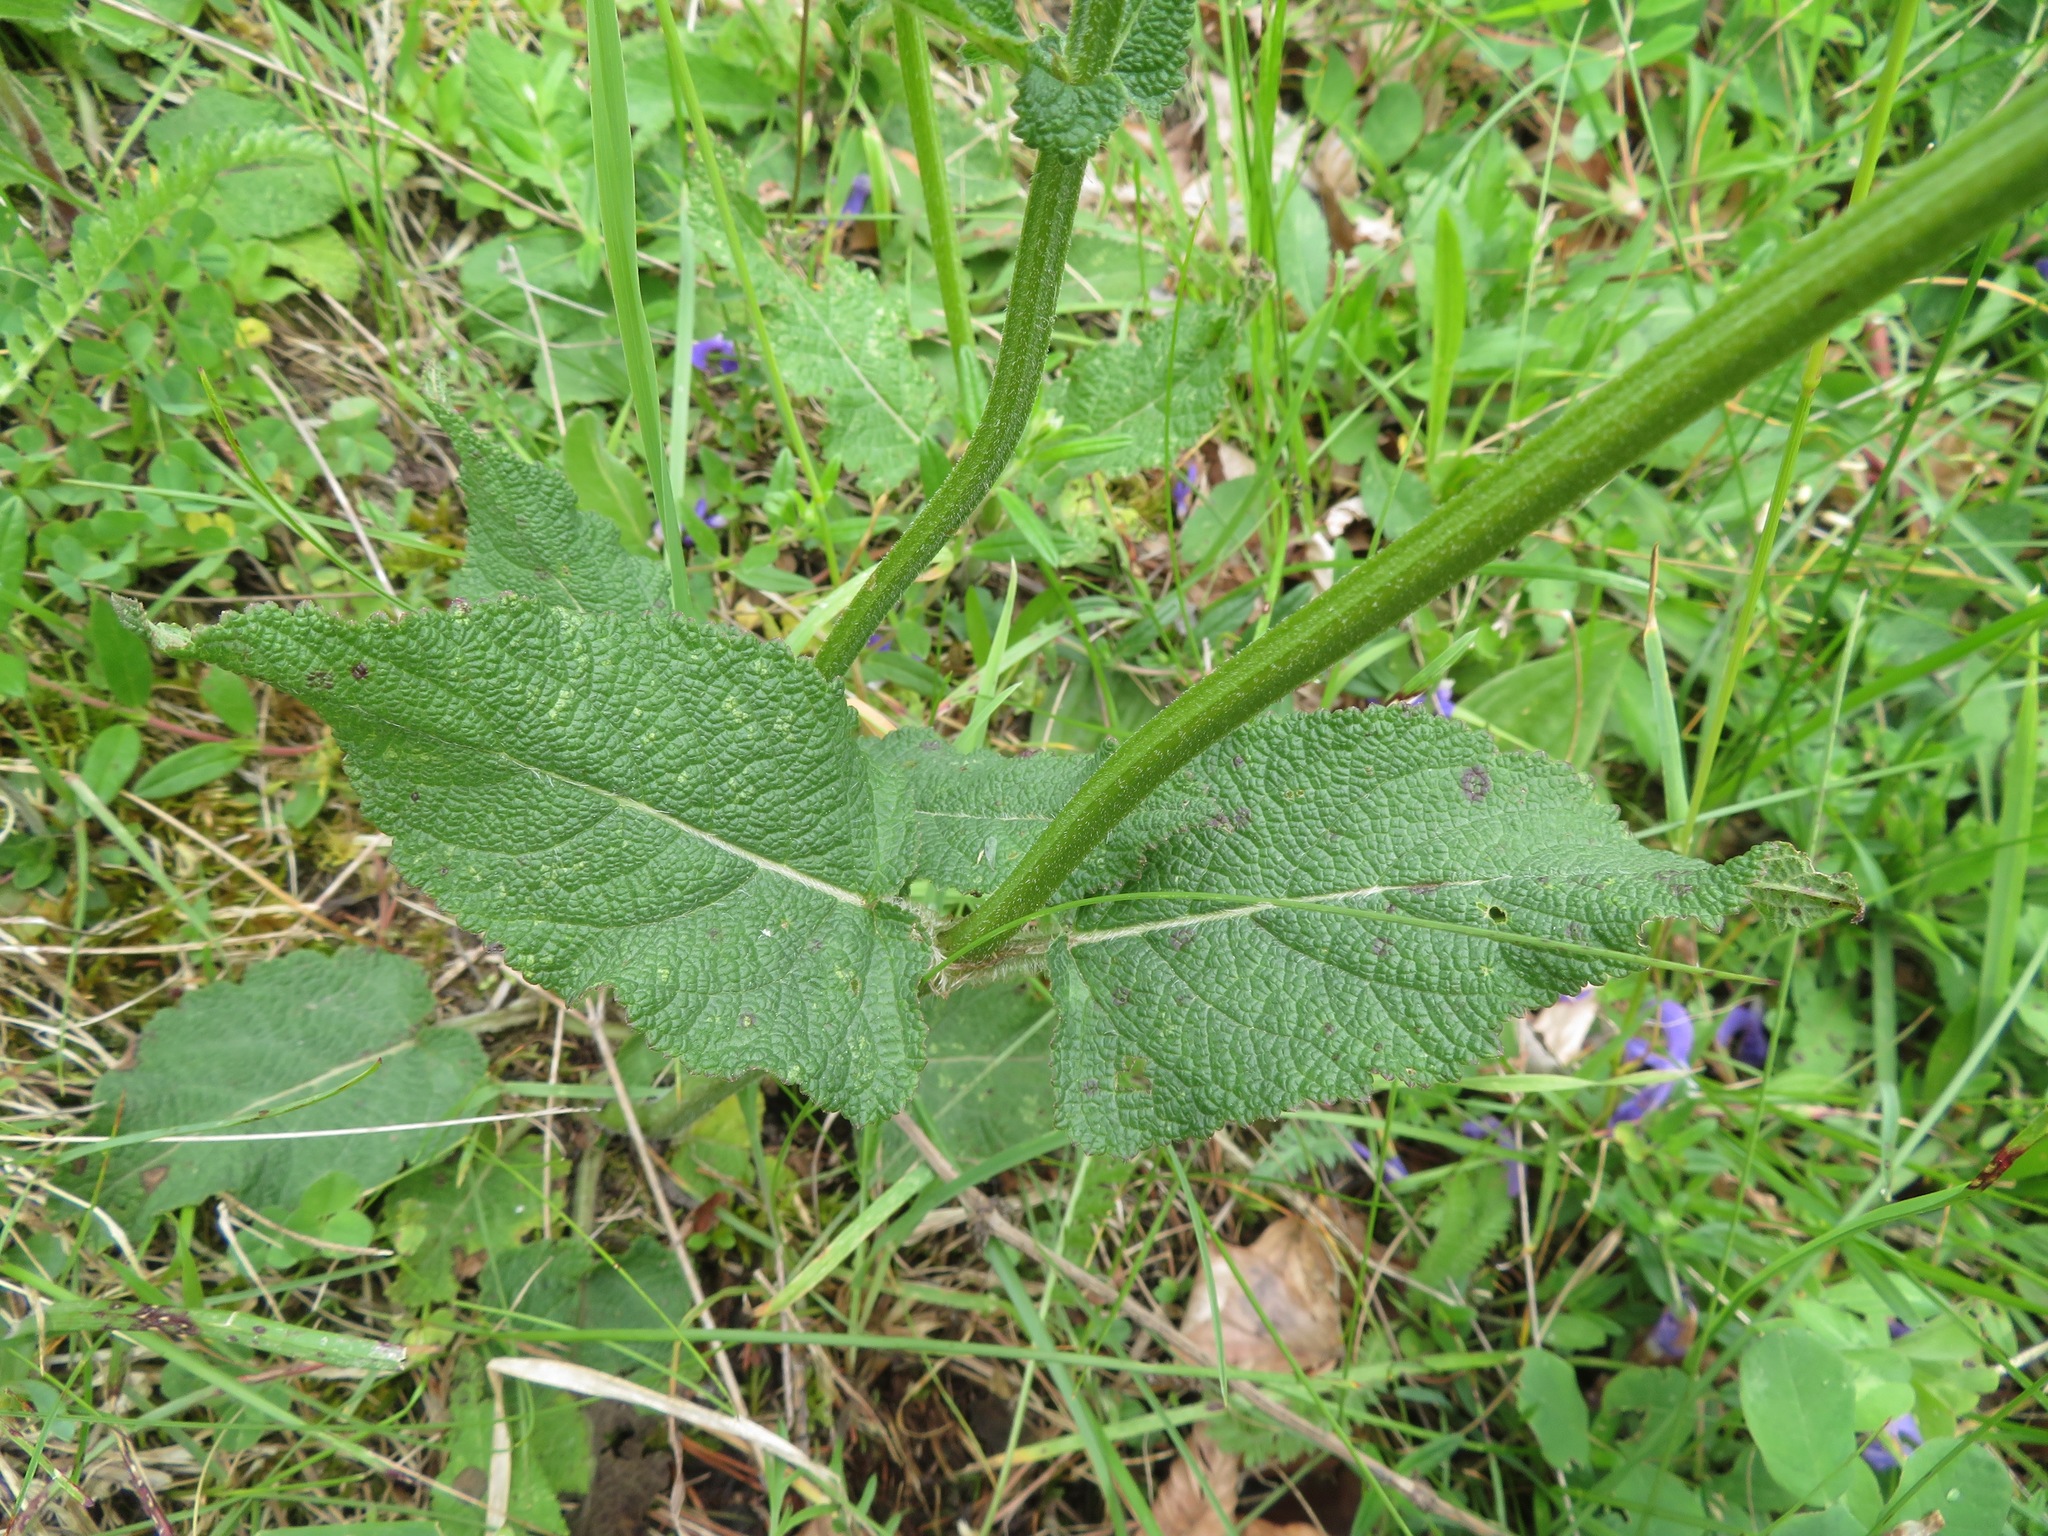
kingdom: Plantae
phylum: Tracheophyta
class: Magnoliopsida
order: Lamiales
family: Lamiaceae
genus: Salvia
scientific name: Salvia pratensis
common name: Meadow sage
